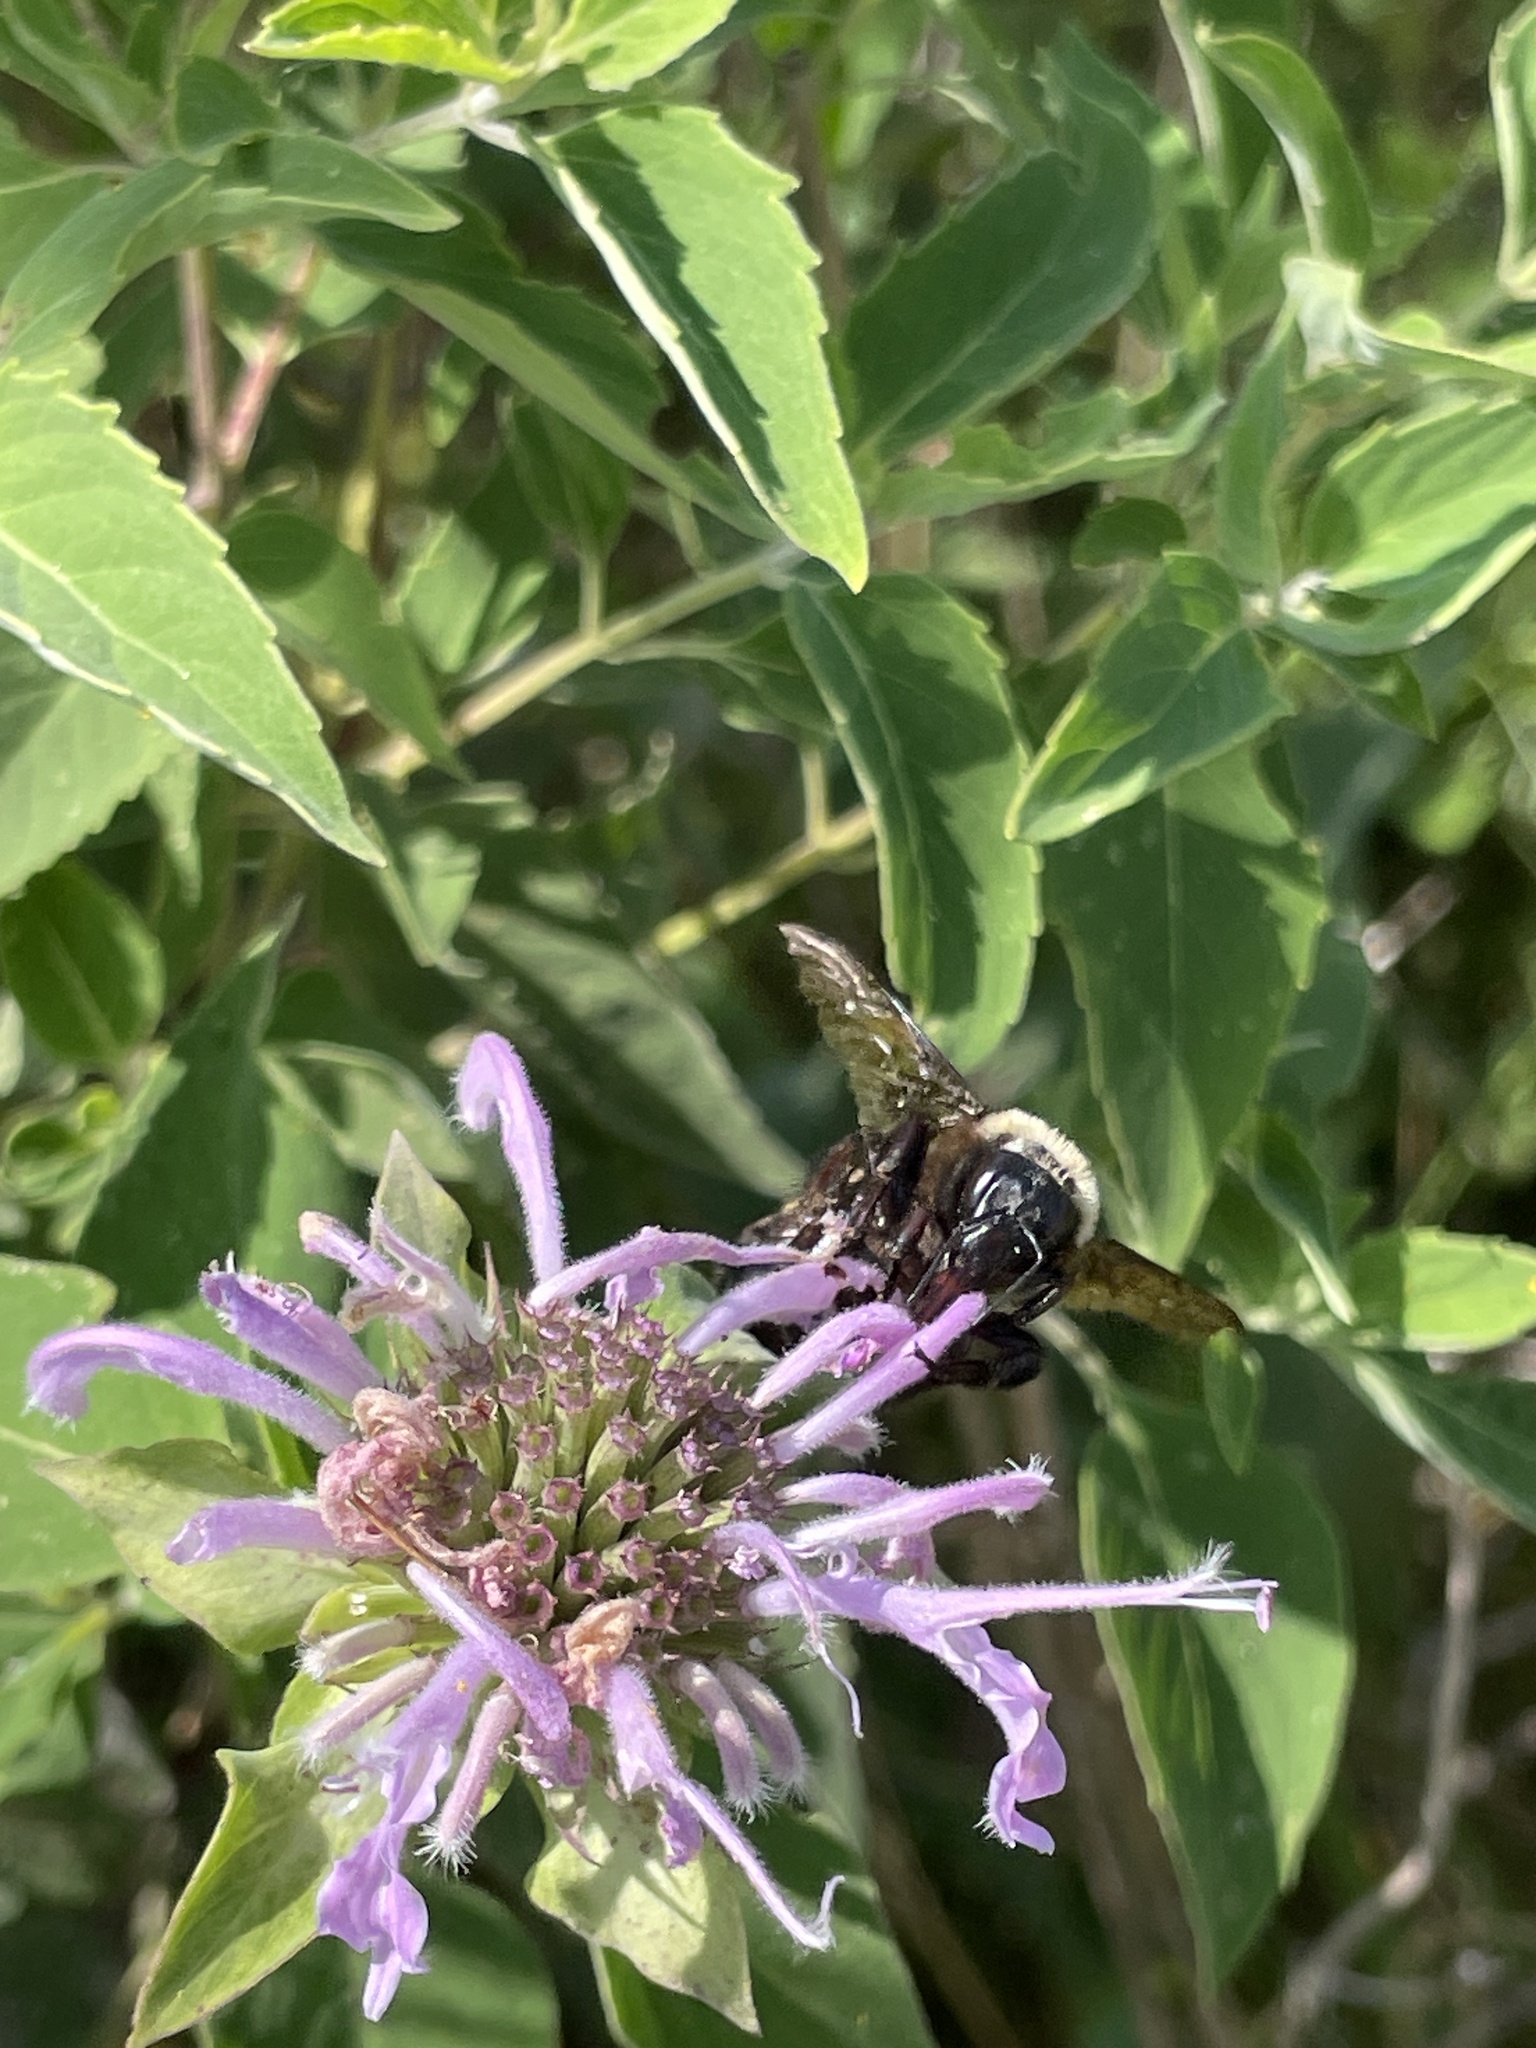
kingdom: Animalia
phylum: Arthropoda
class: Insecta
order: Hymenoptera
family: Apidae
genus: Bombus
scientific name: Bombus auricomus
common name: Black and gold bumble bee
